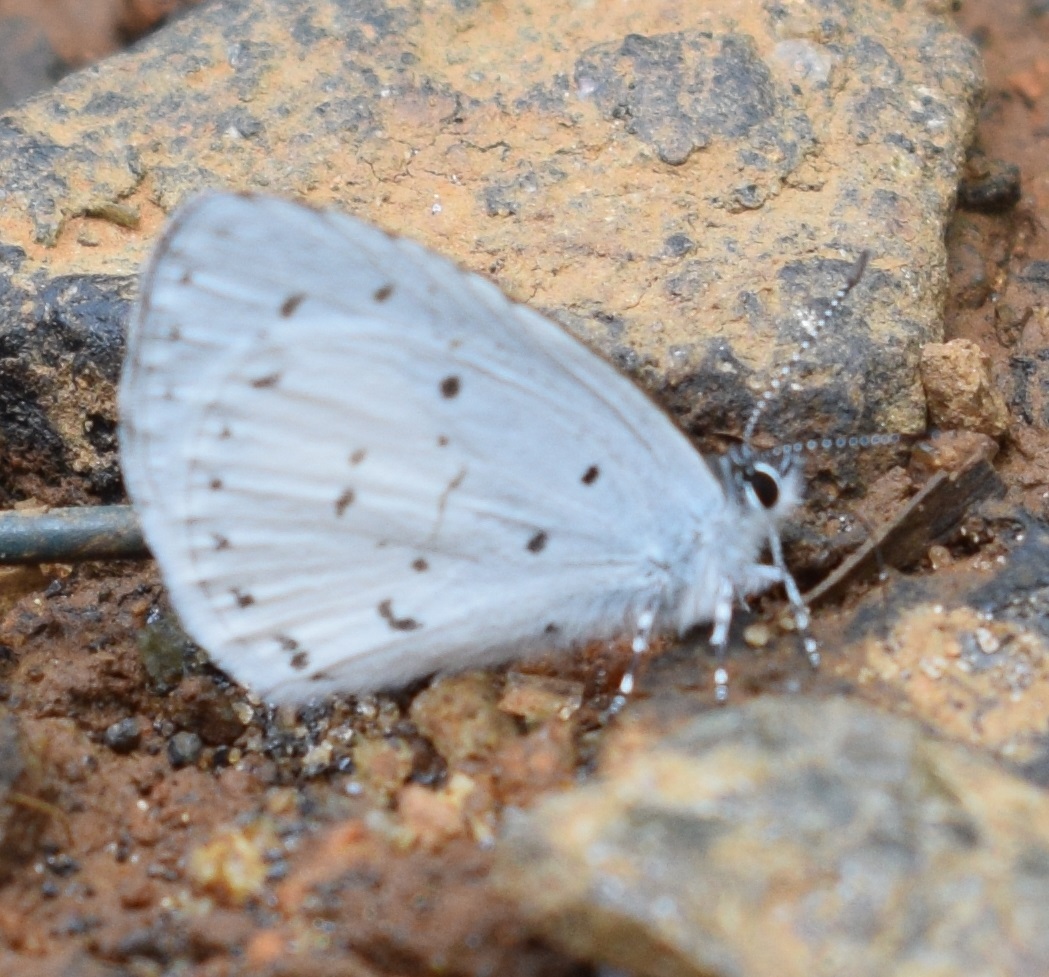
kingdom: Animalia
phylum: Arthropoda
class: Insecta
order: Lepidoptera
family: Lycaenidae
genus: Udara
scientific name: Udara akasa
